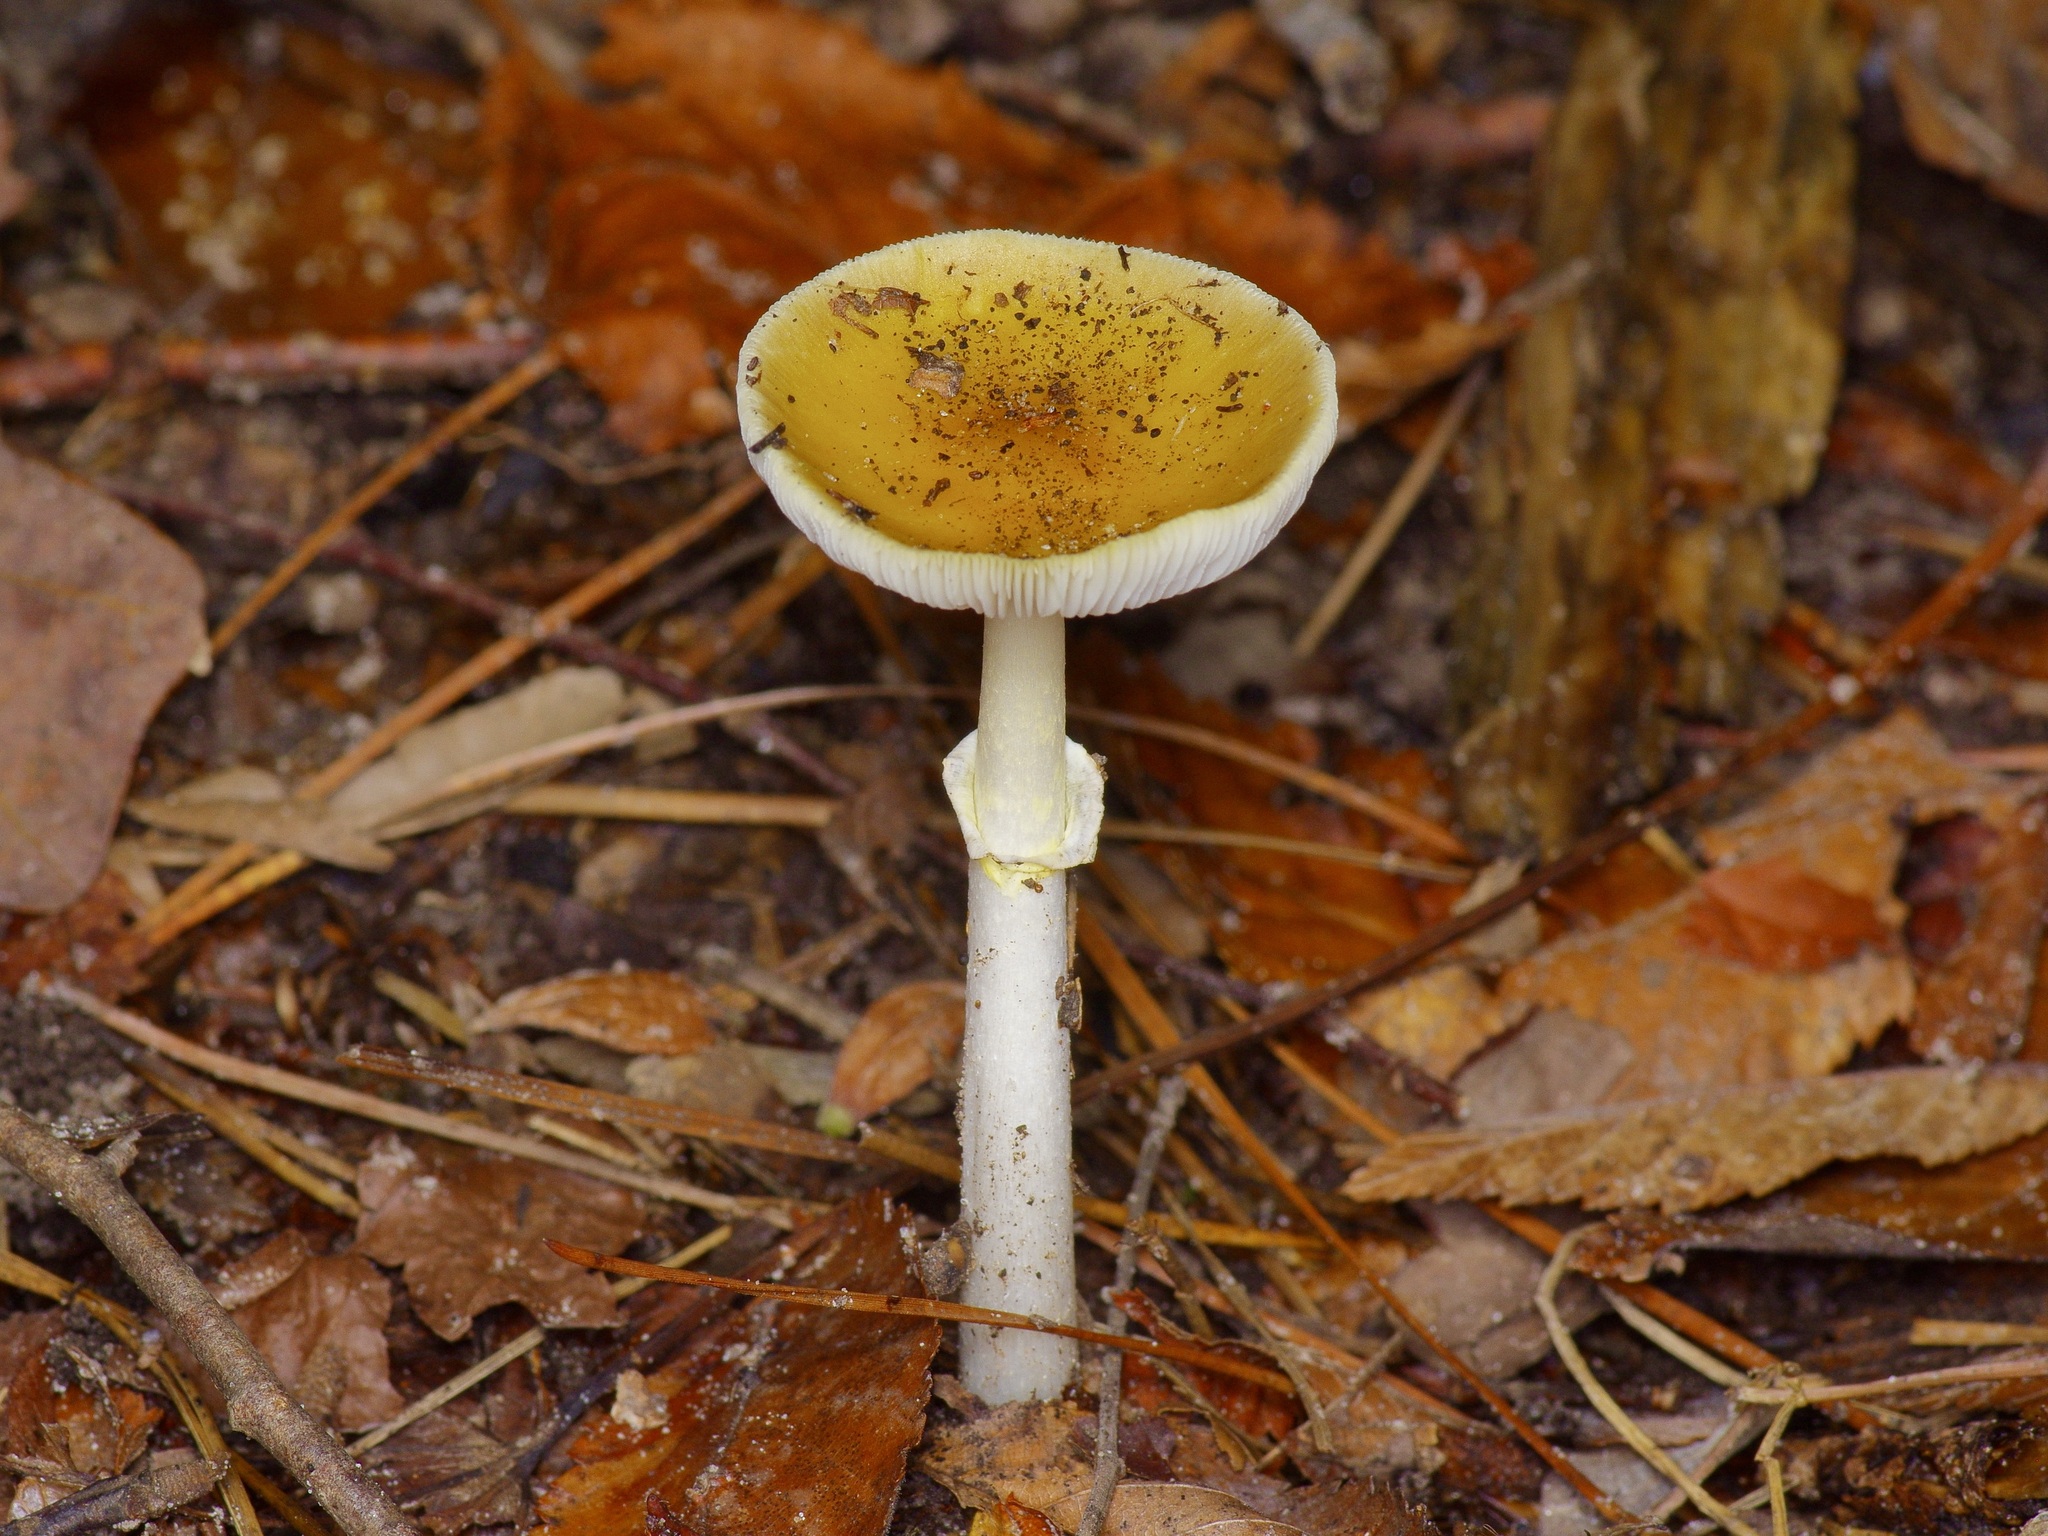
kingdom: Fungi
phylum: Basidiomycota
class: Agaricomycetes
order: Agaricales
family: Amanitaceae
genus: Amanita
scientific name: Amanita elongata
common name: Peck's yellow dust amanita
